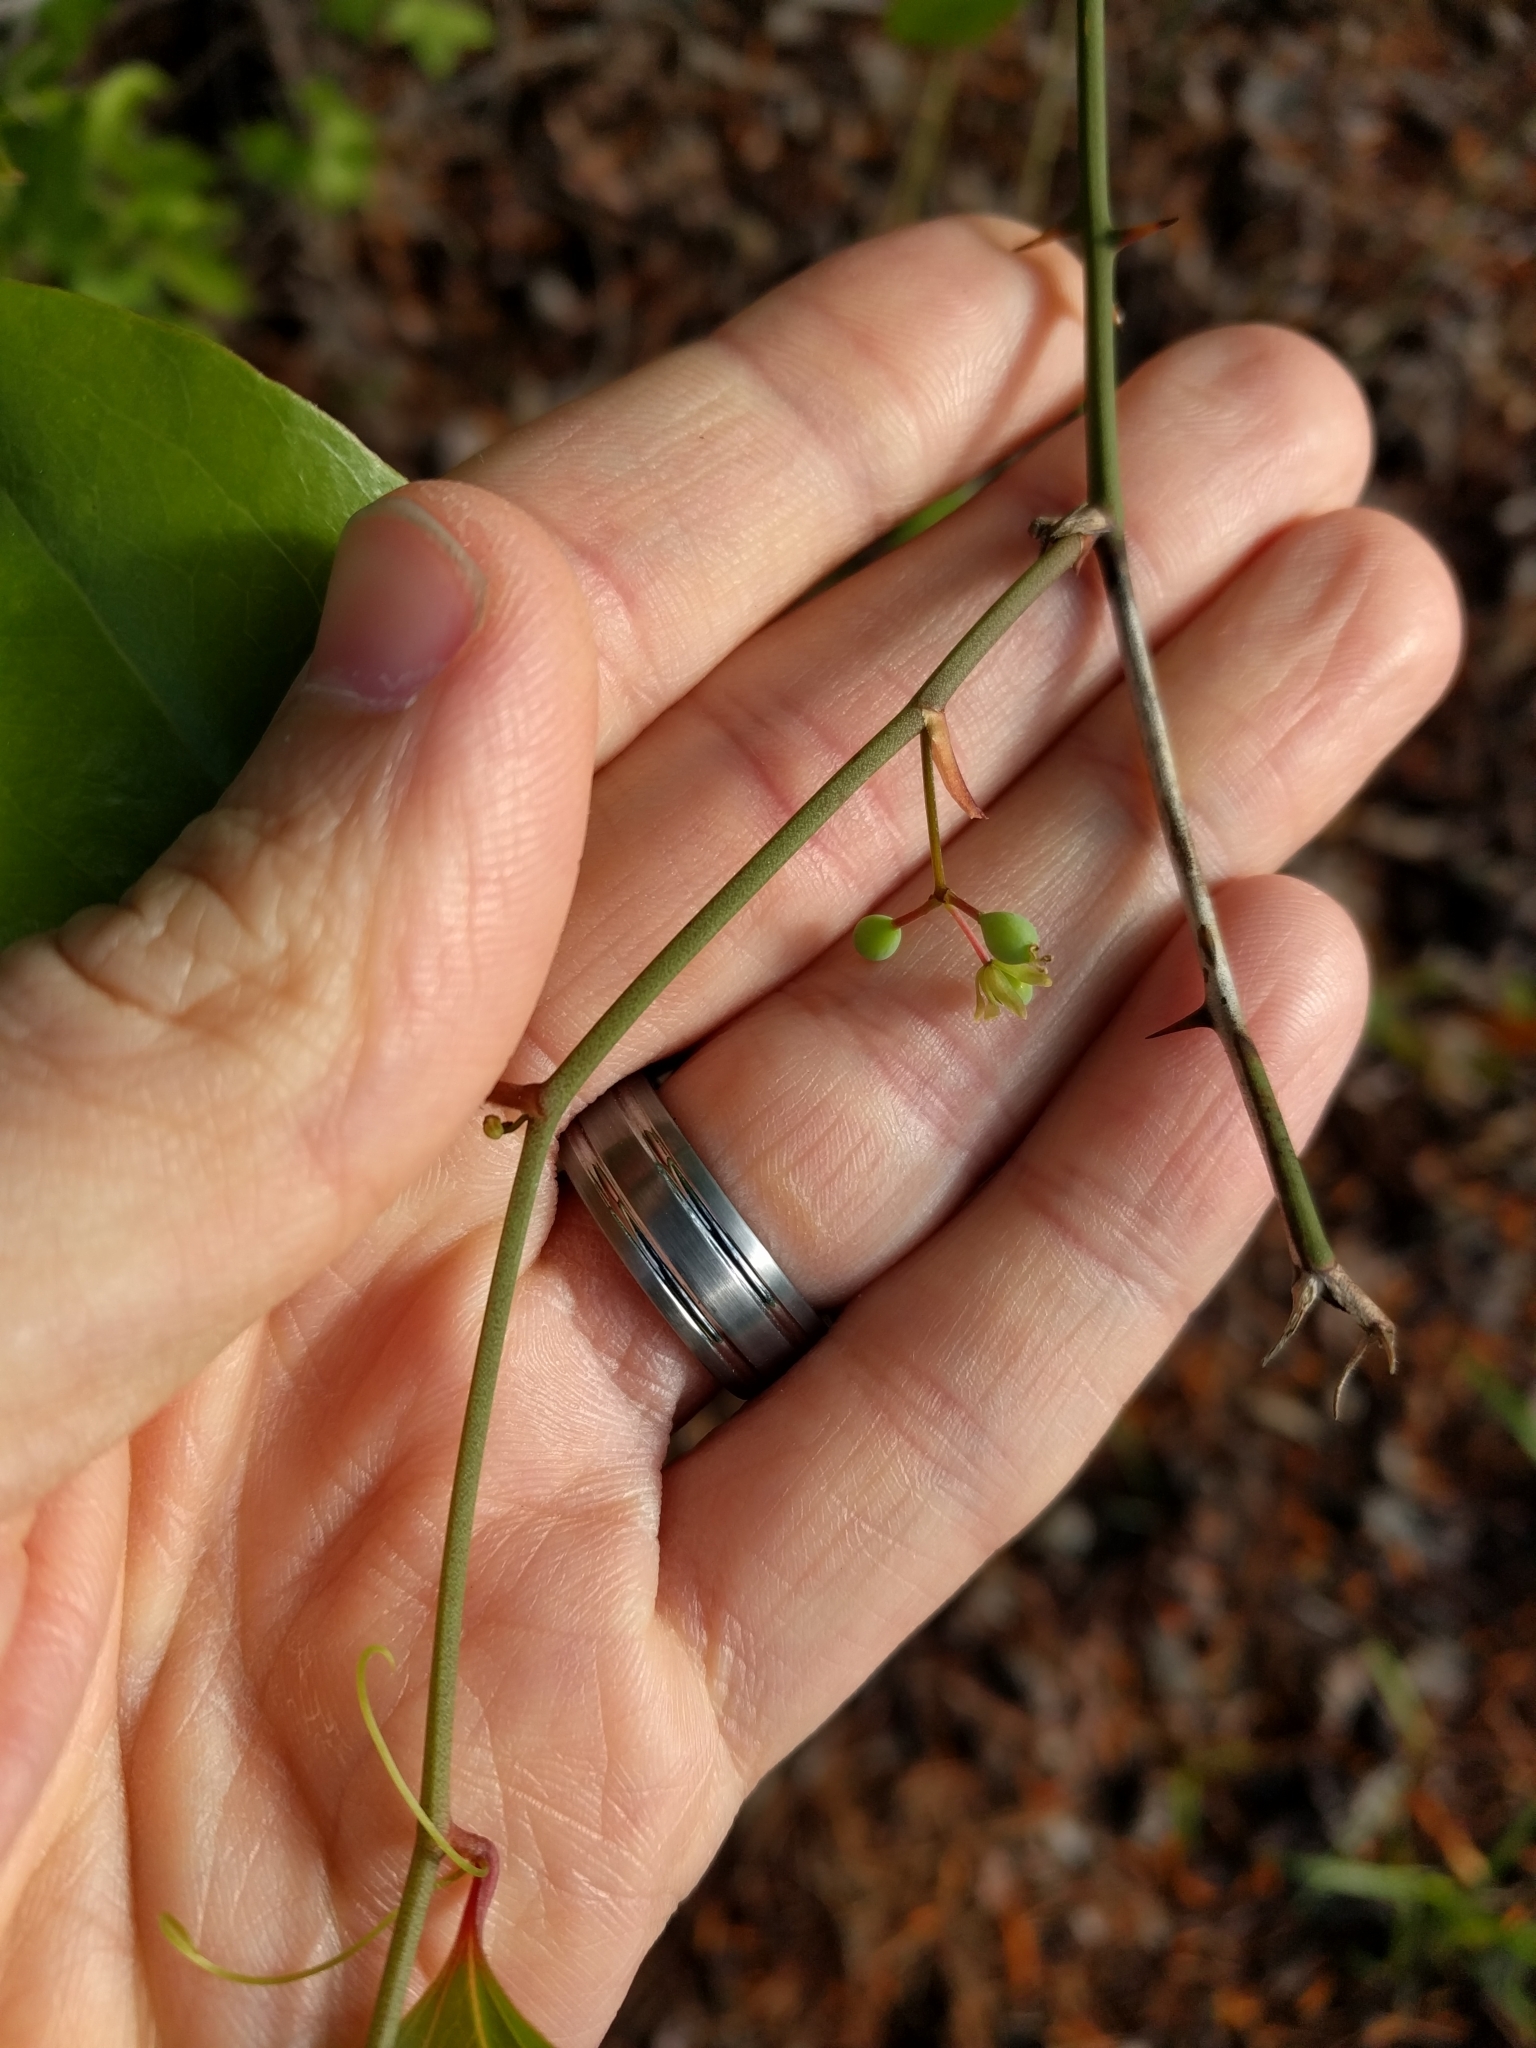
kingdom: Plantae
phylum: Tracheophyta
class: Liliopsida
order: Liliales
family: Smilacaceae
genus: Smilax
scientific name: Smilax rotundifolia
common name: Bullbriar
